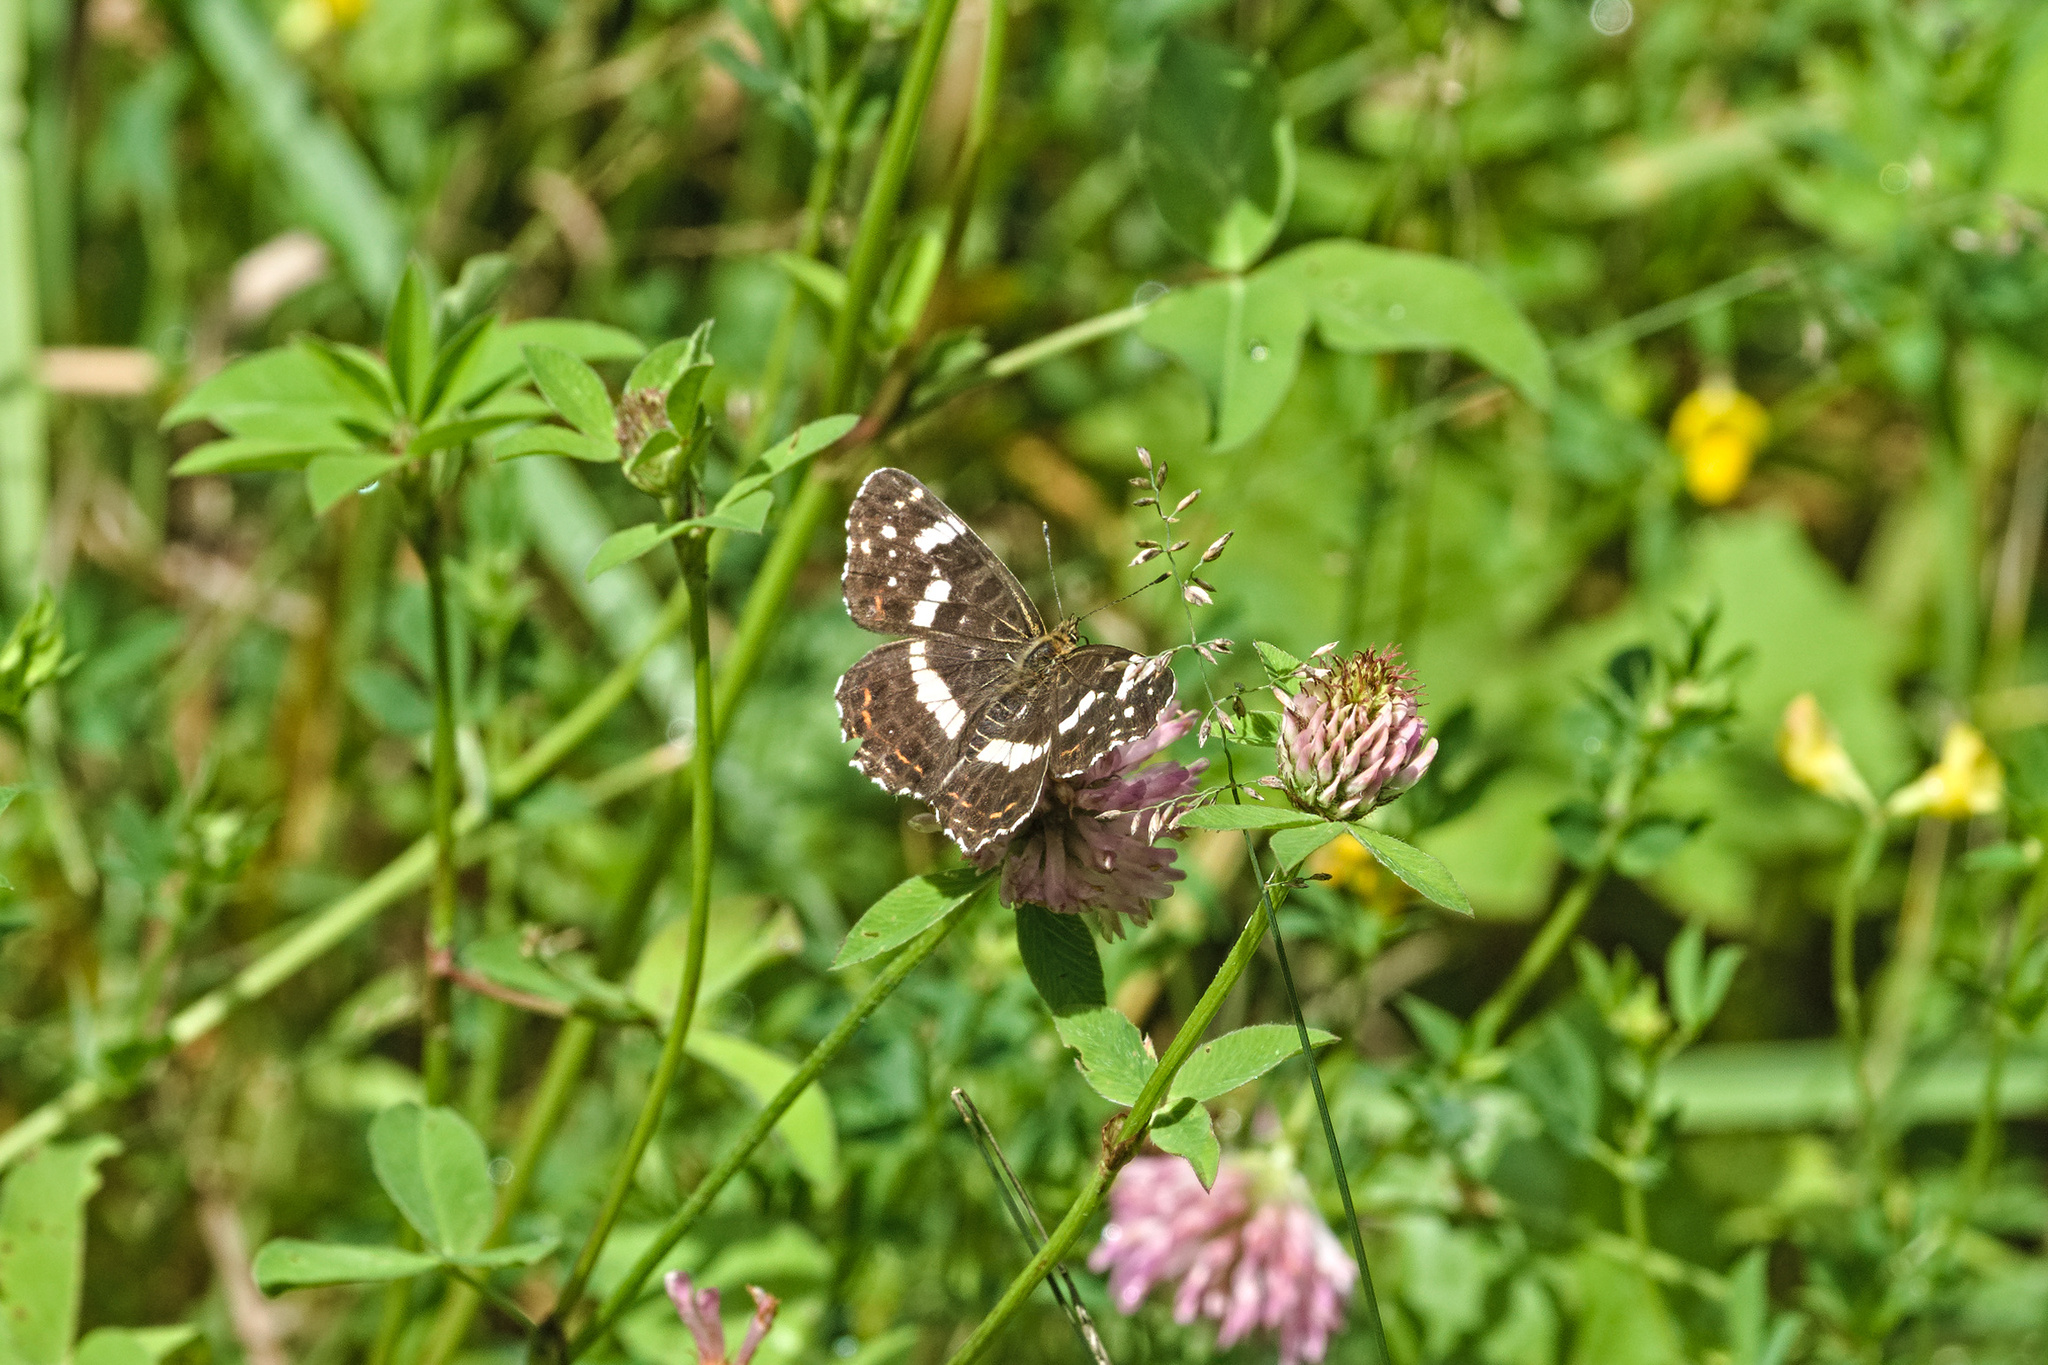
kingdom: Animalia
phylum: Arthropoda
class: Insecta
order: Lepidoptera
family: Nymphalidae
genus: Araschnia
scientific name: Araschnia levana
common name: Map butterfly
